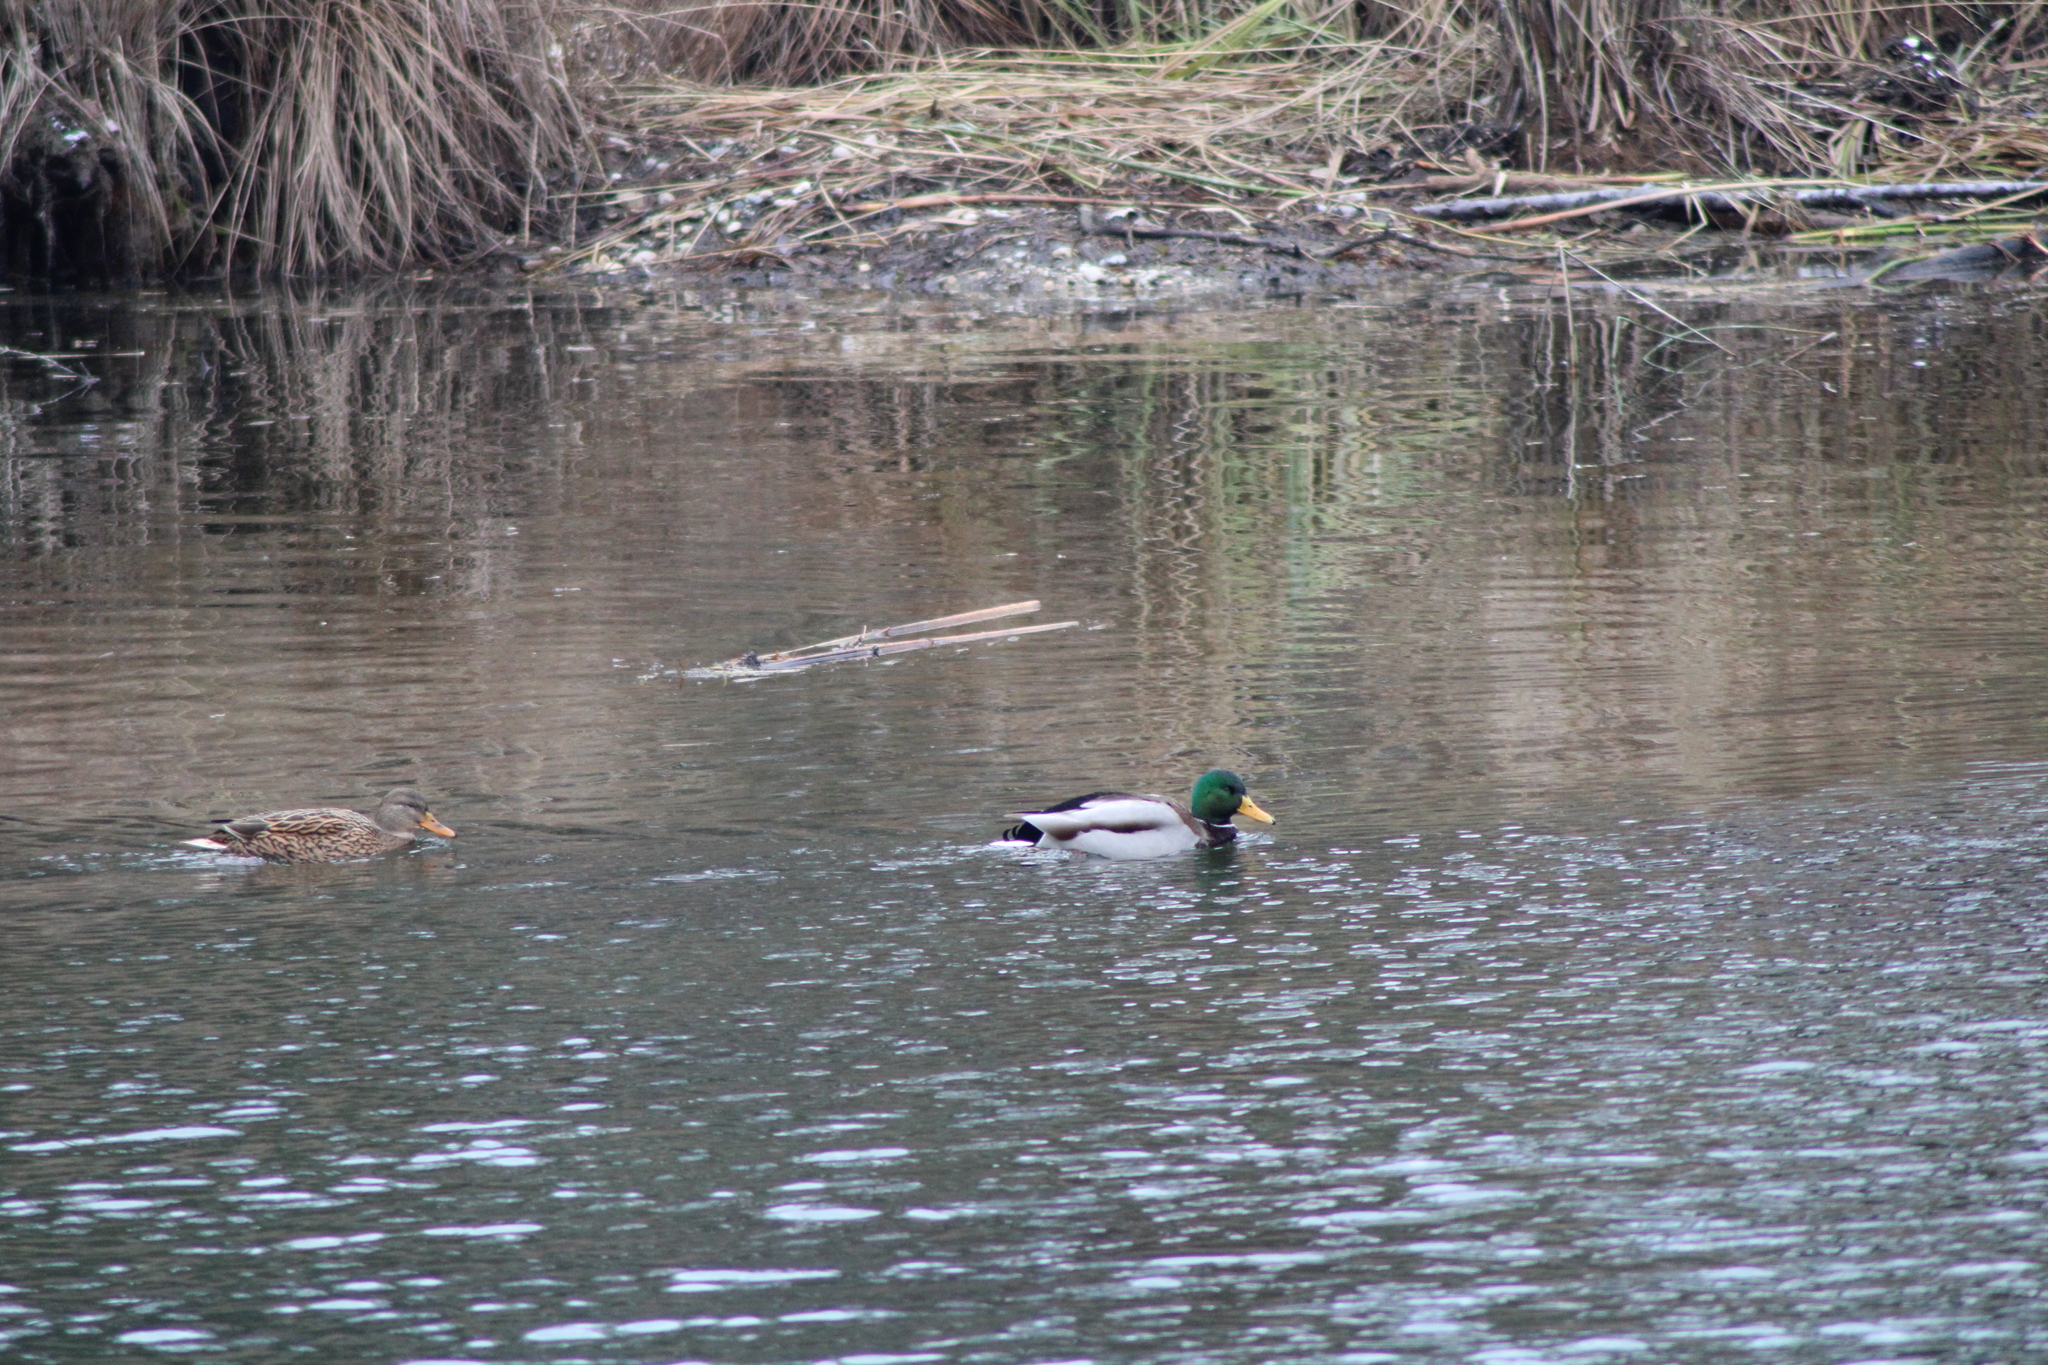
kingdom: Animalia
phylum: Chordata
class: Aves
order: Anseriformes
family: Anatidae
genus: Anas
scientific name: Anas platyrhynchos
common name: Mallard
